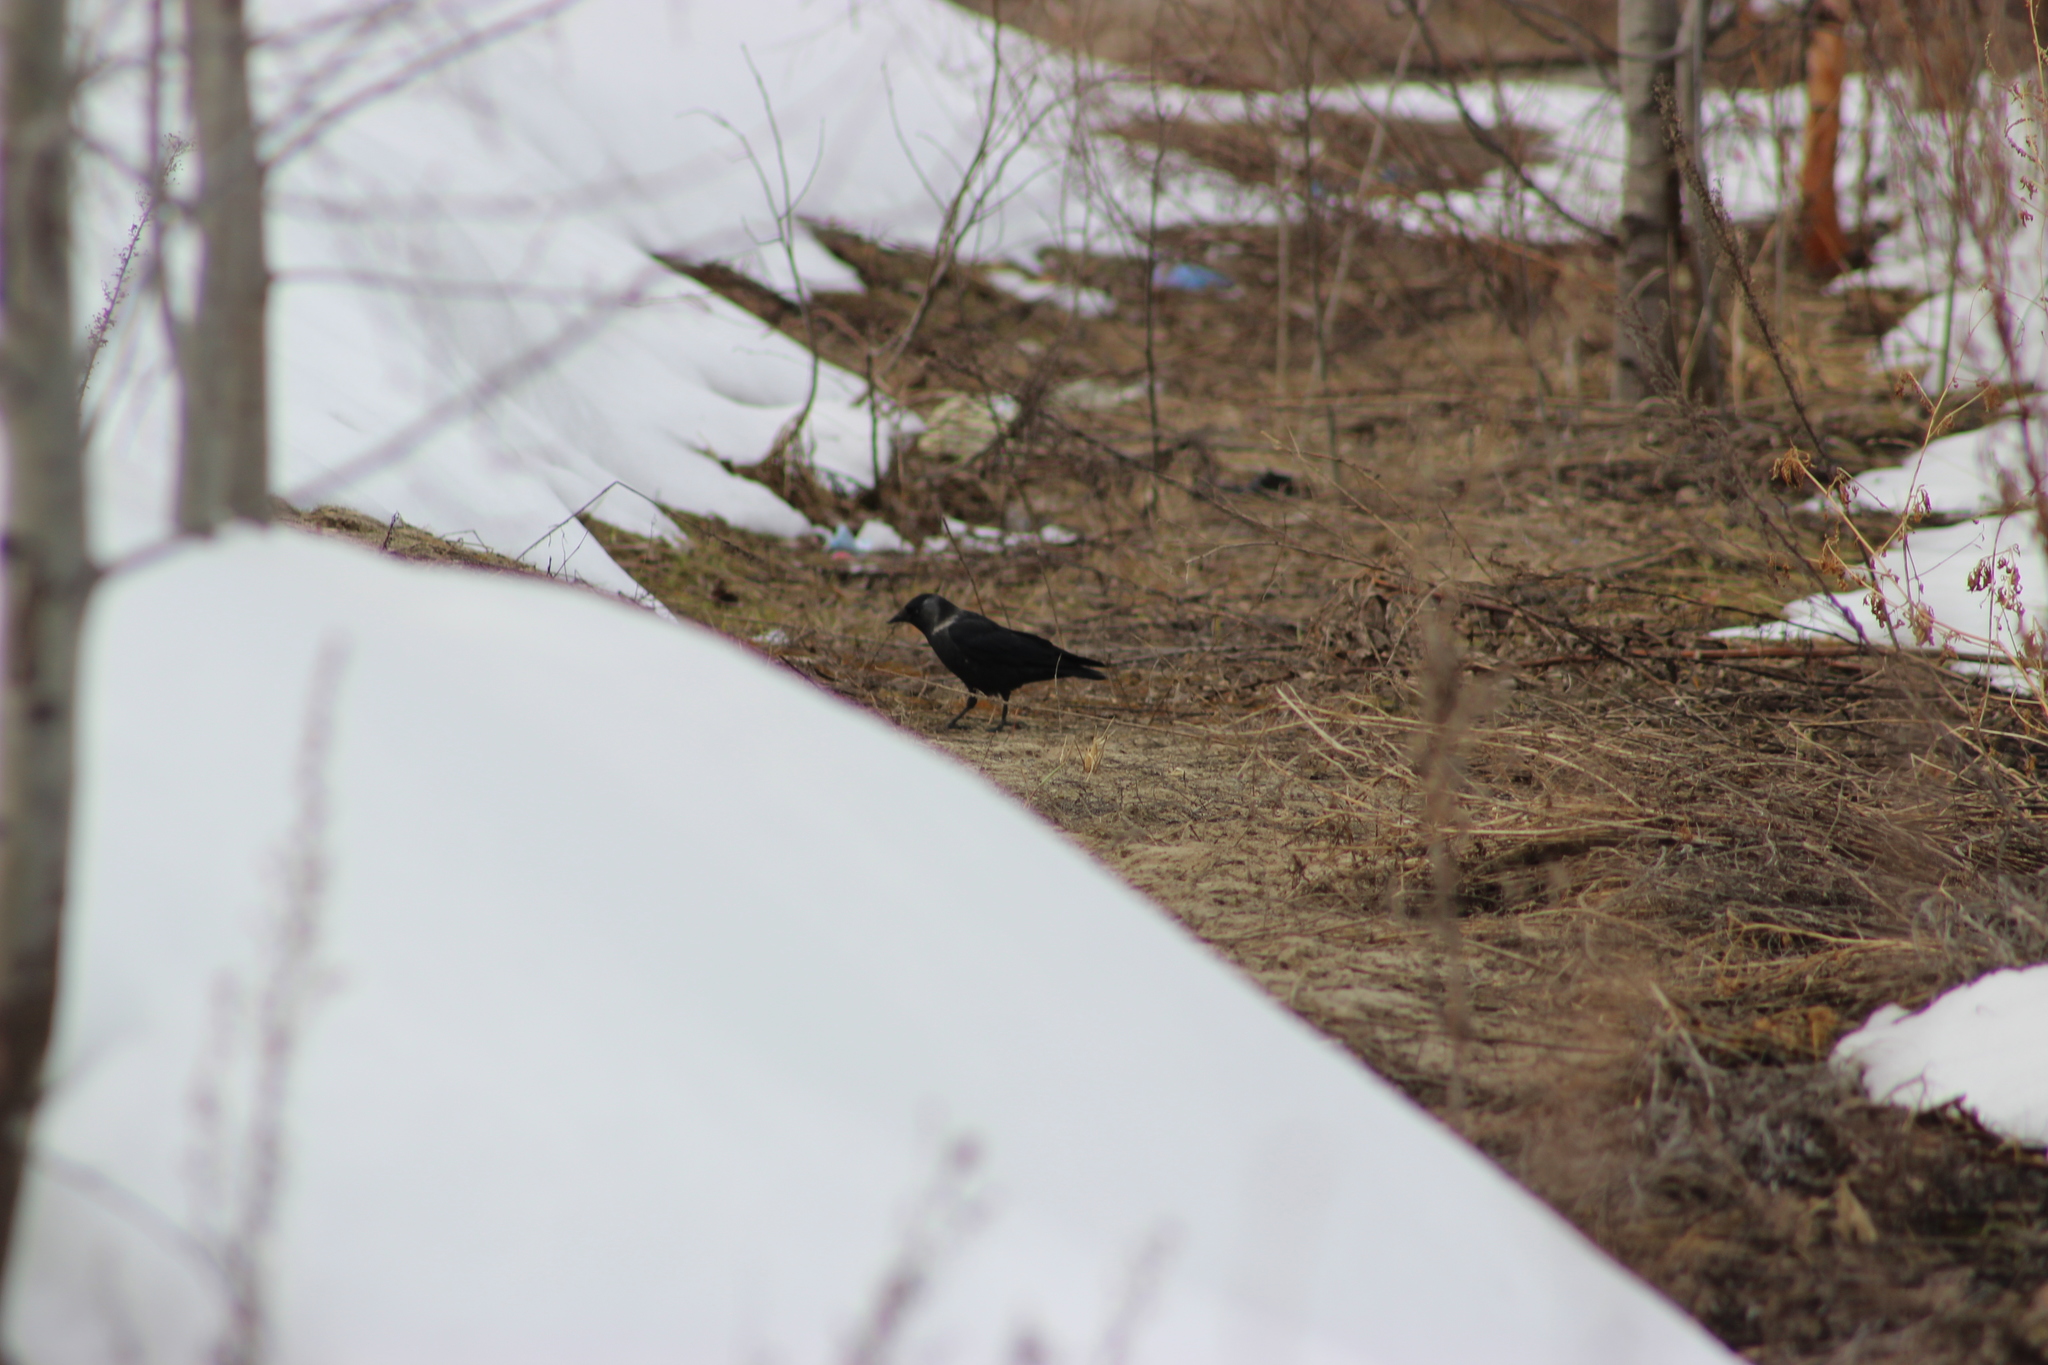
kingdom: Animalia
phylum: Chordata
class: Aves
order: Passeriformes
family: Corvidae
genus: Coloeus
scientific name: Coloeus monedula
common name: Western jackdaw
